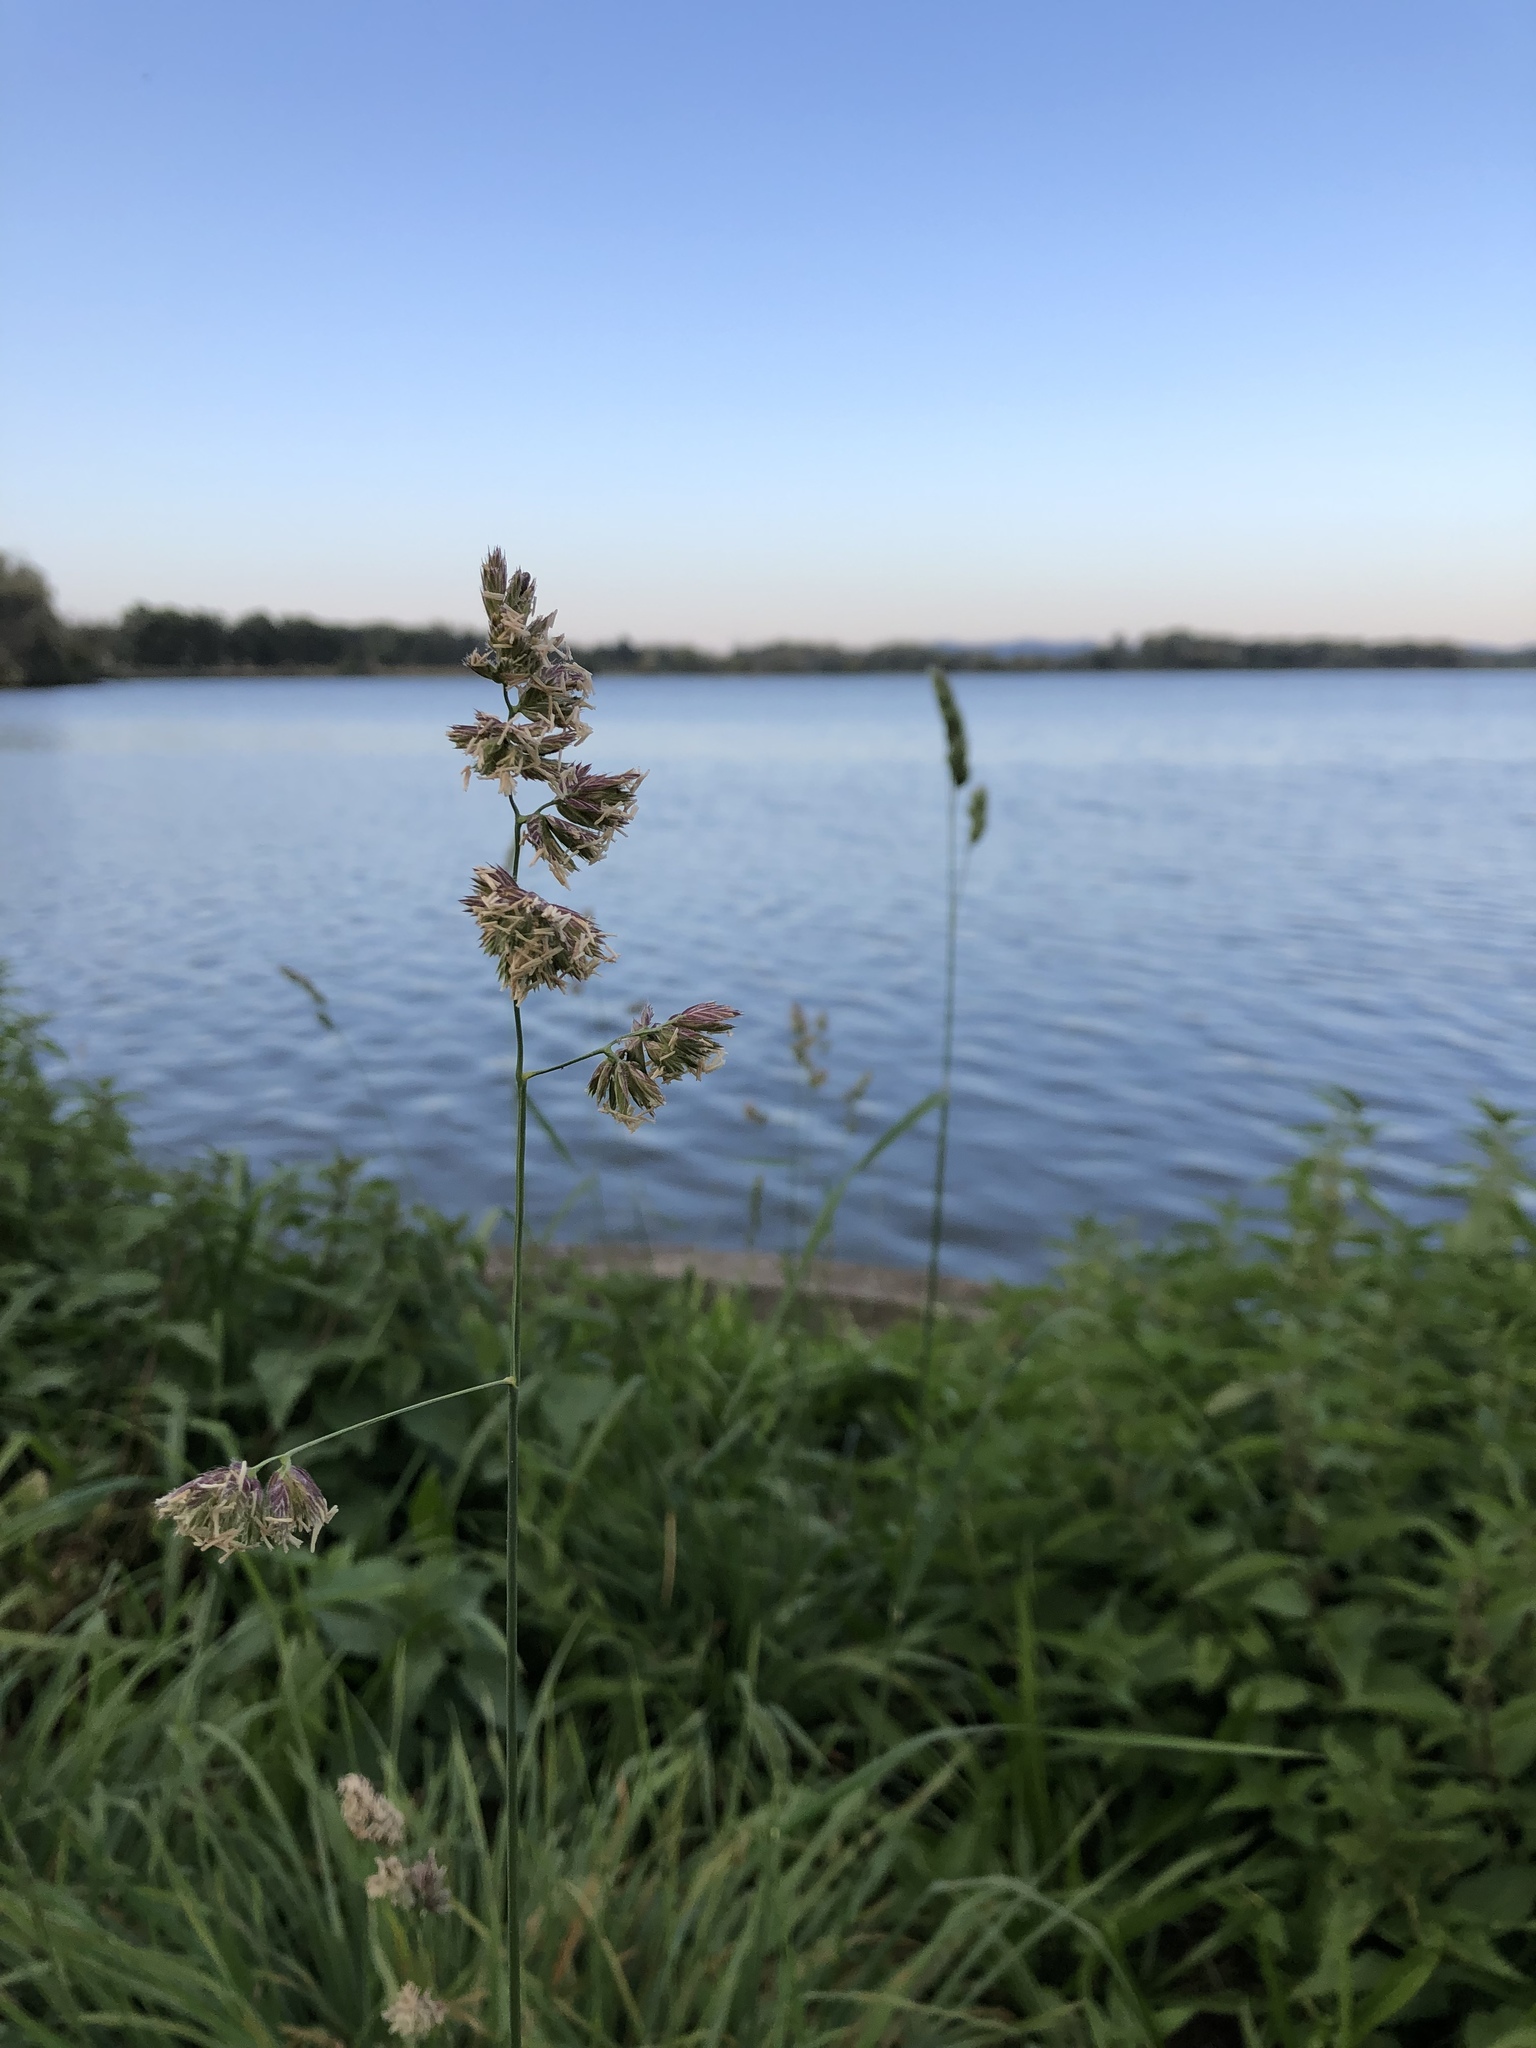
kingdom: Plantae
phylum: Tracheophyta
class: Liliopsida
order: Poales
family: Poaceae
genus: Dactylis
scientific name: Dactylis glomerata
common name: Orchardgrass
